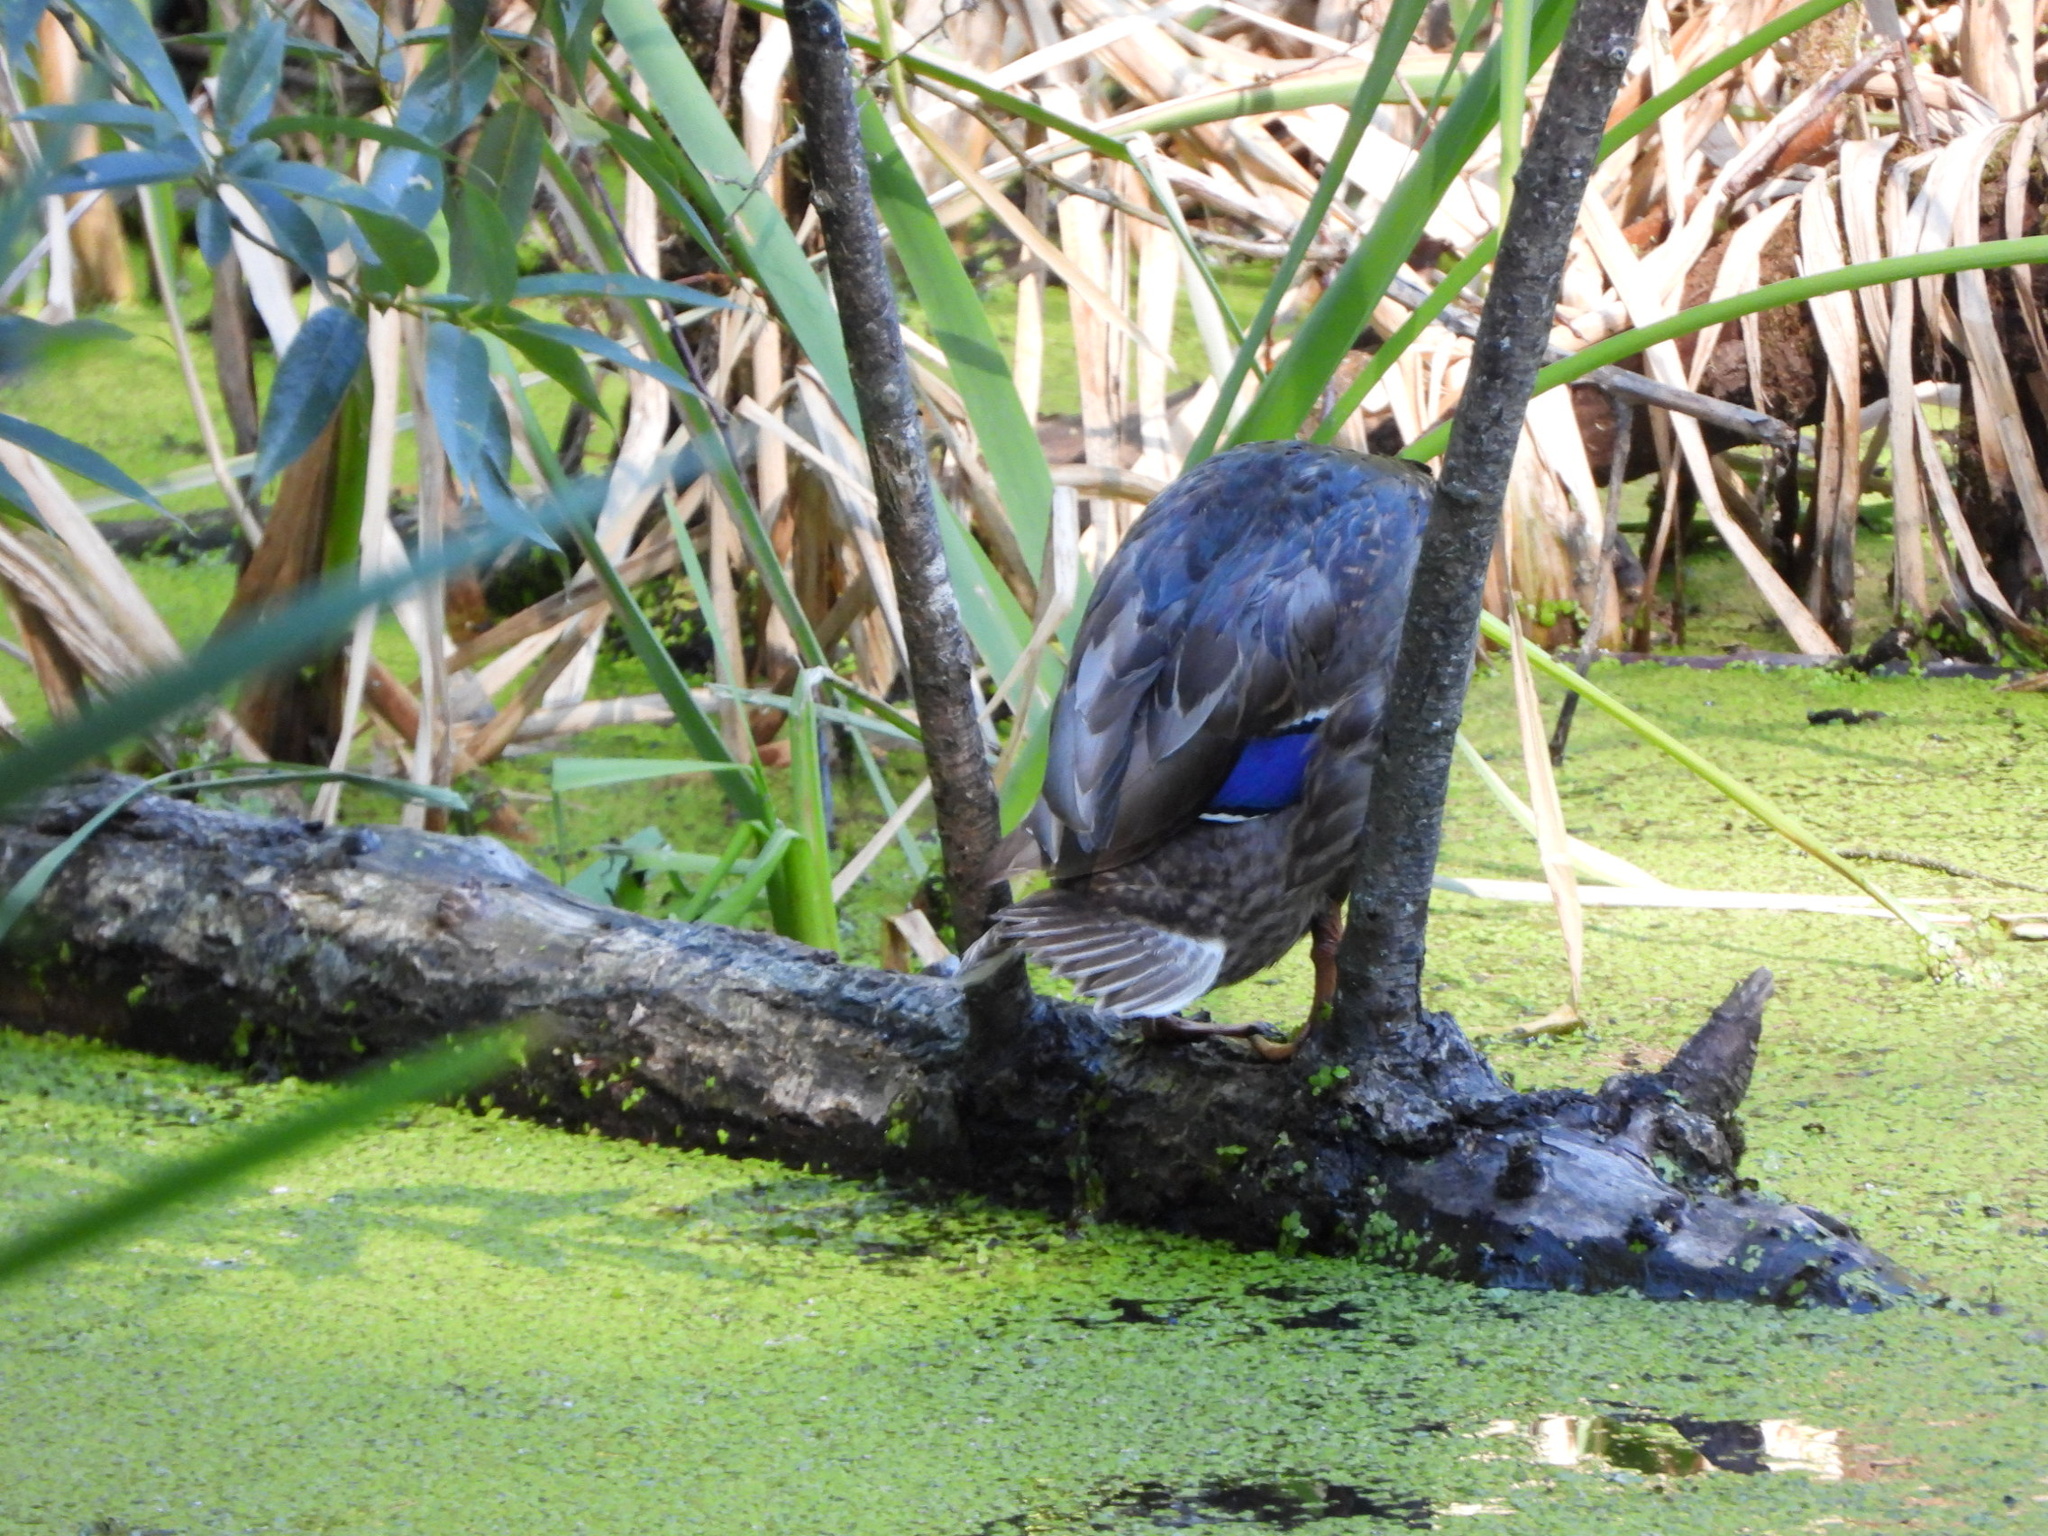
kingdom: Animalia
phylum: Chordata
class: Aves
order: Anseriformes
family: Anatidae
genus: Anas
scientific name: Anas platyrhynchos
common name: Mallard
